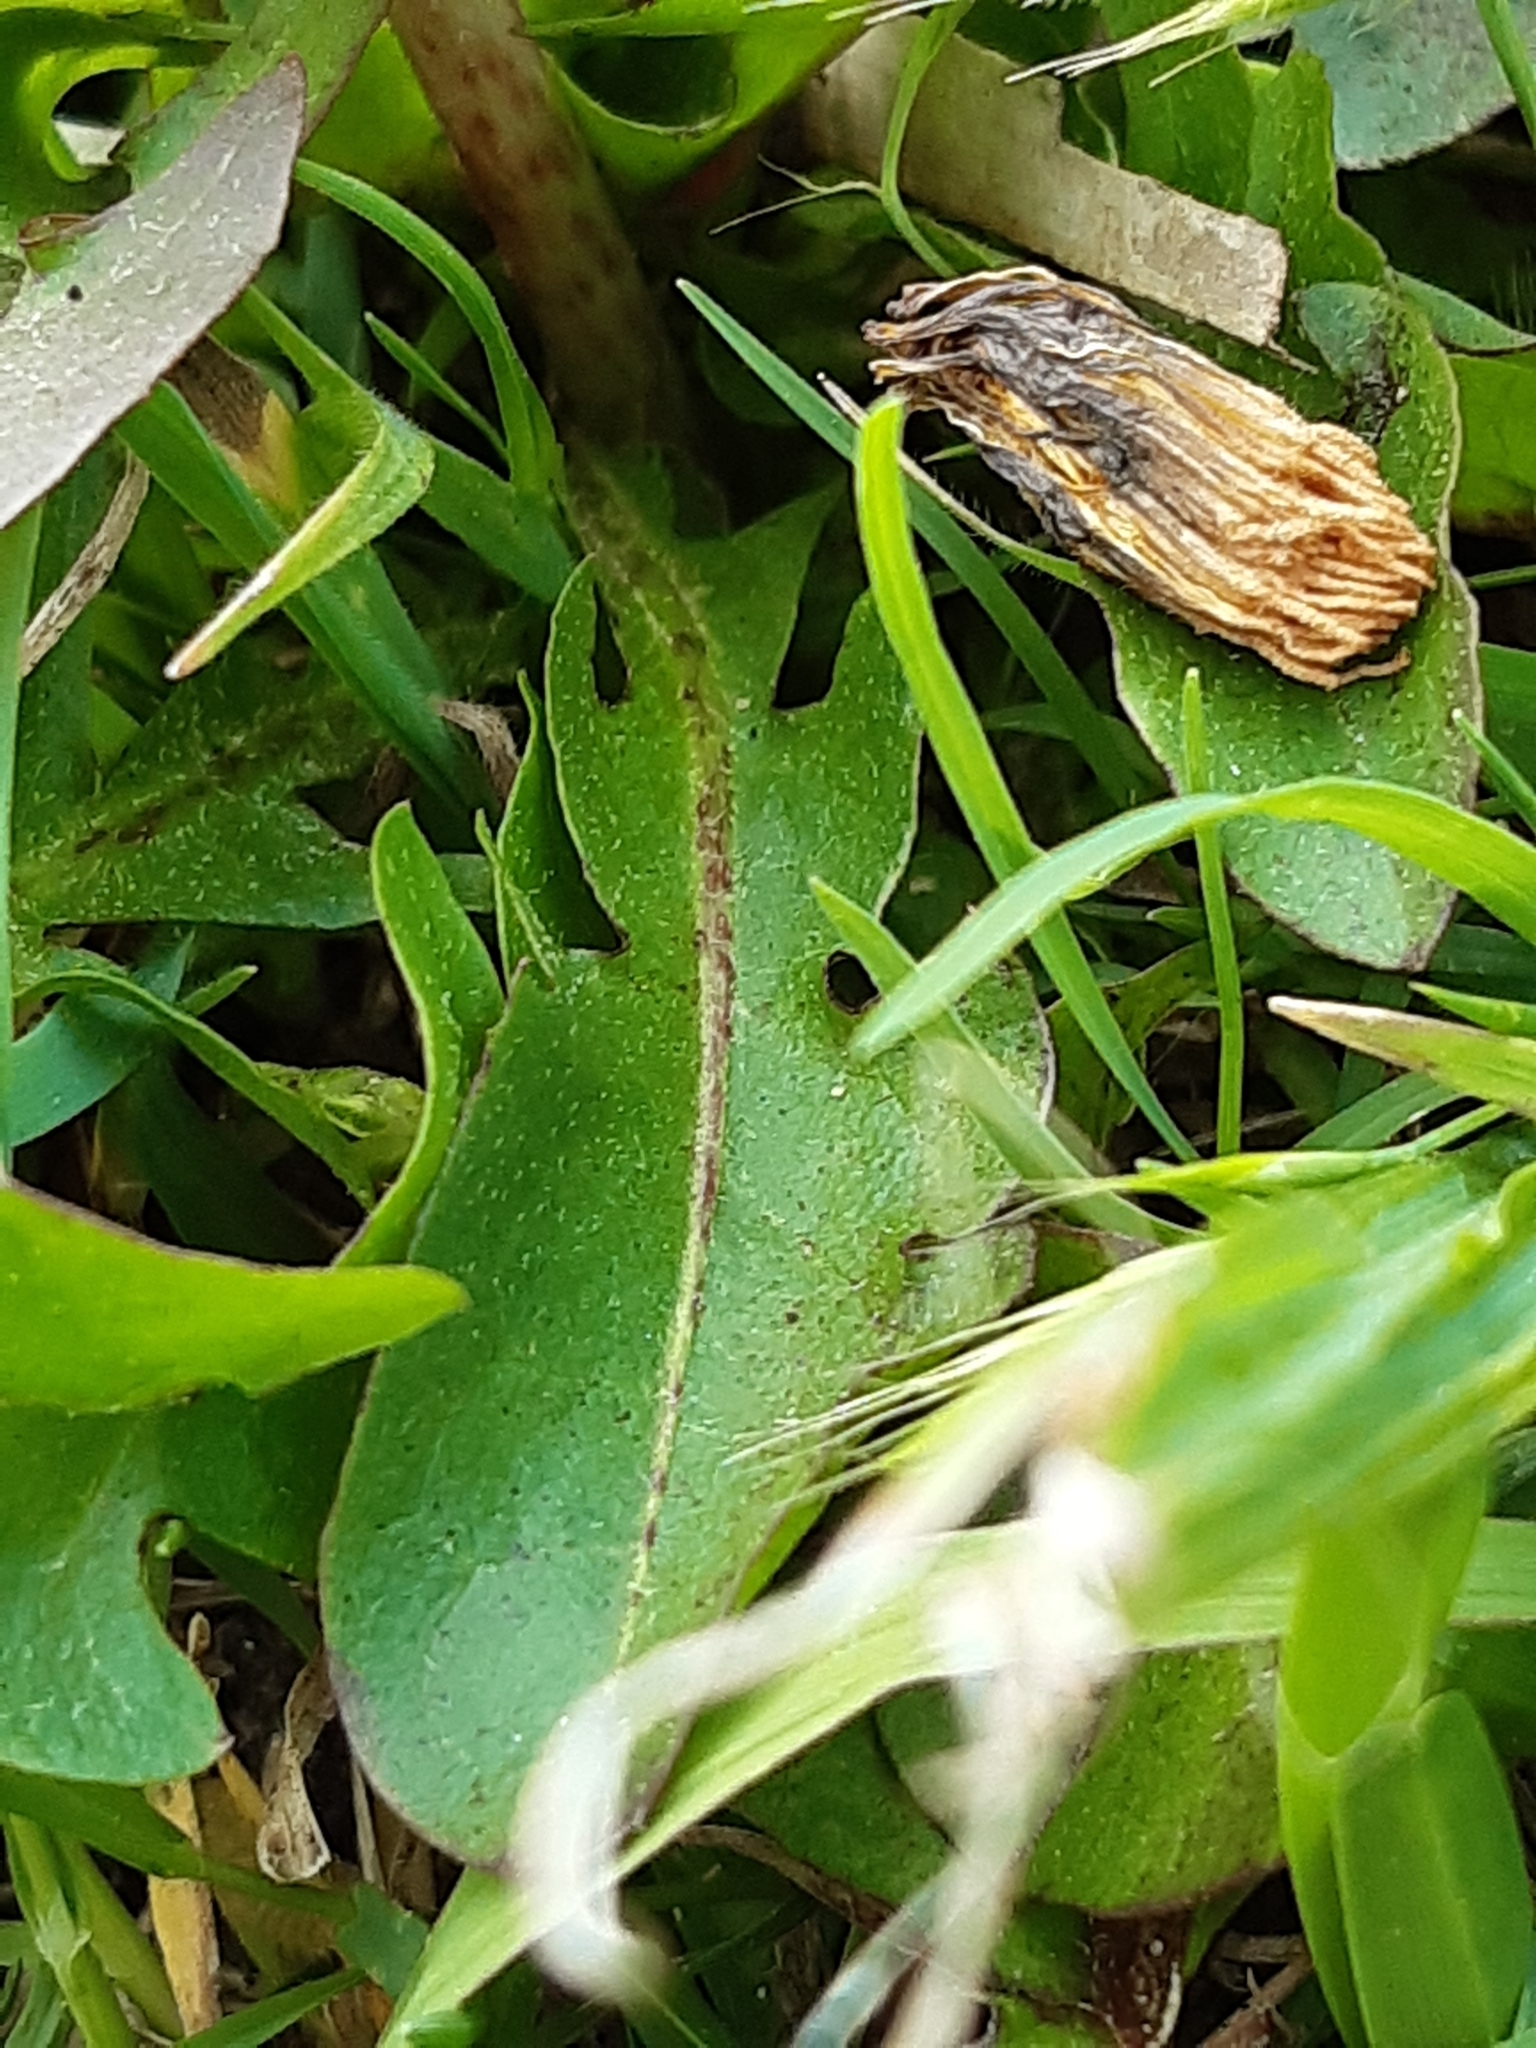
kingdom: Plantae
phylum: Tracheophyta
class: Magnoliopsida
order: Asterales
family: Asteraceae
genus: Taraxacum
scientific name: Taraxacum officinale
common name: Common dandelion
